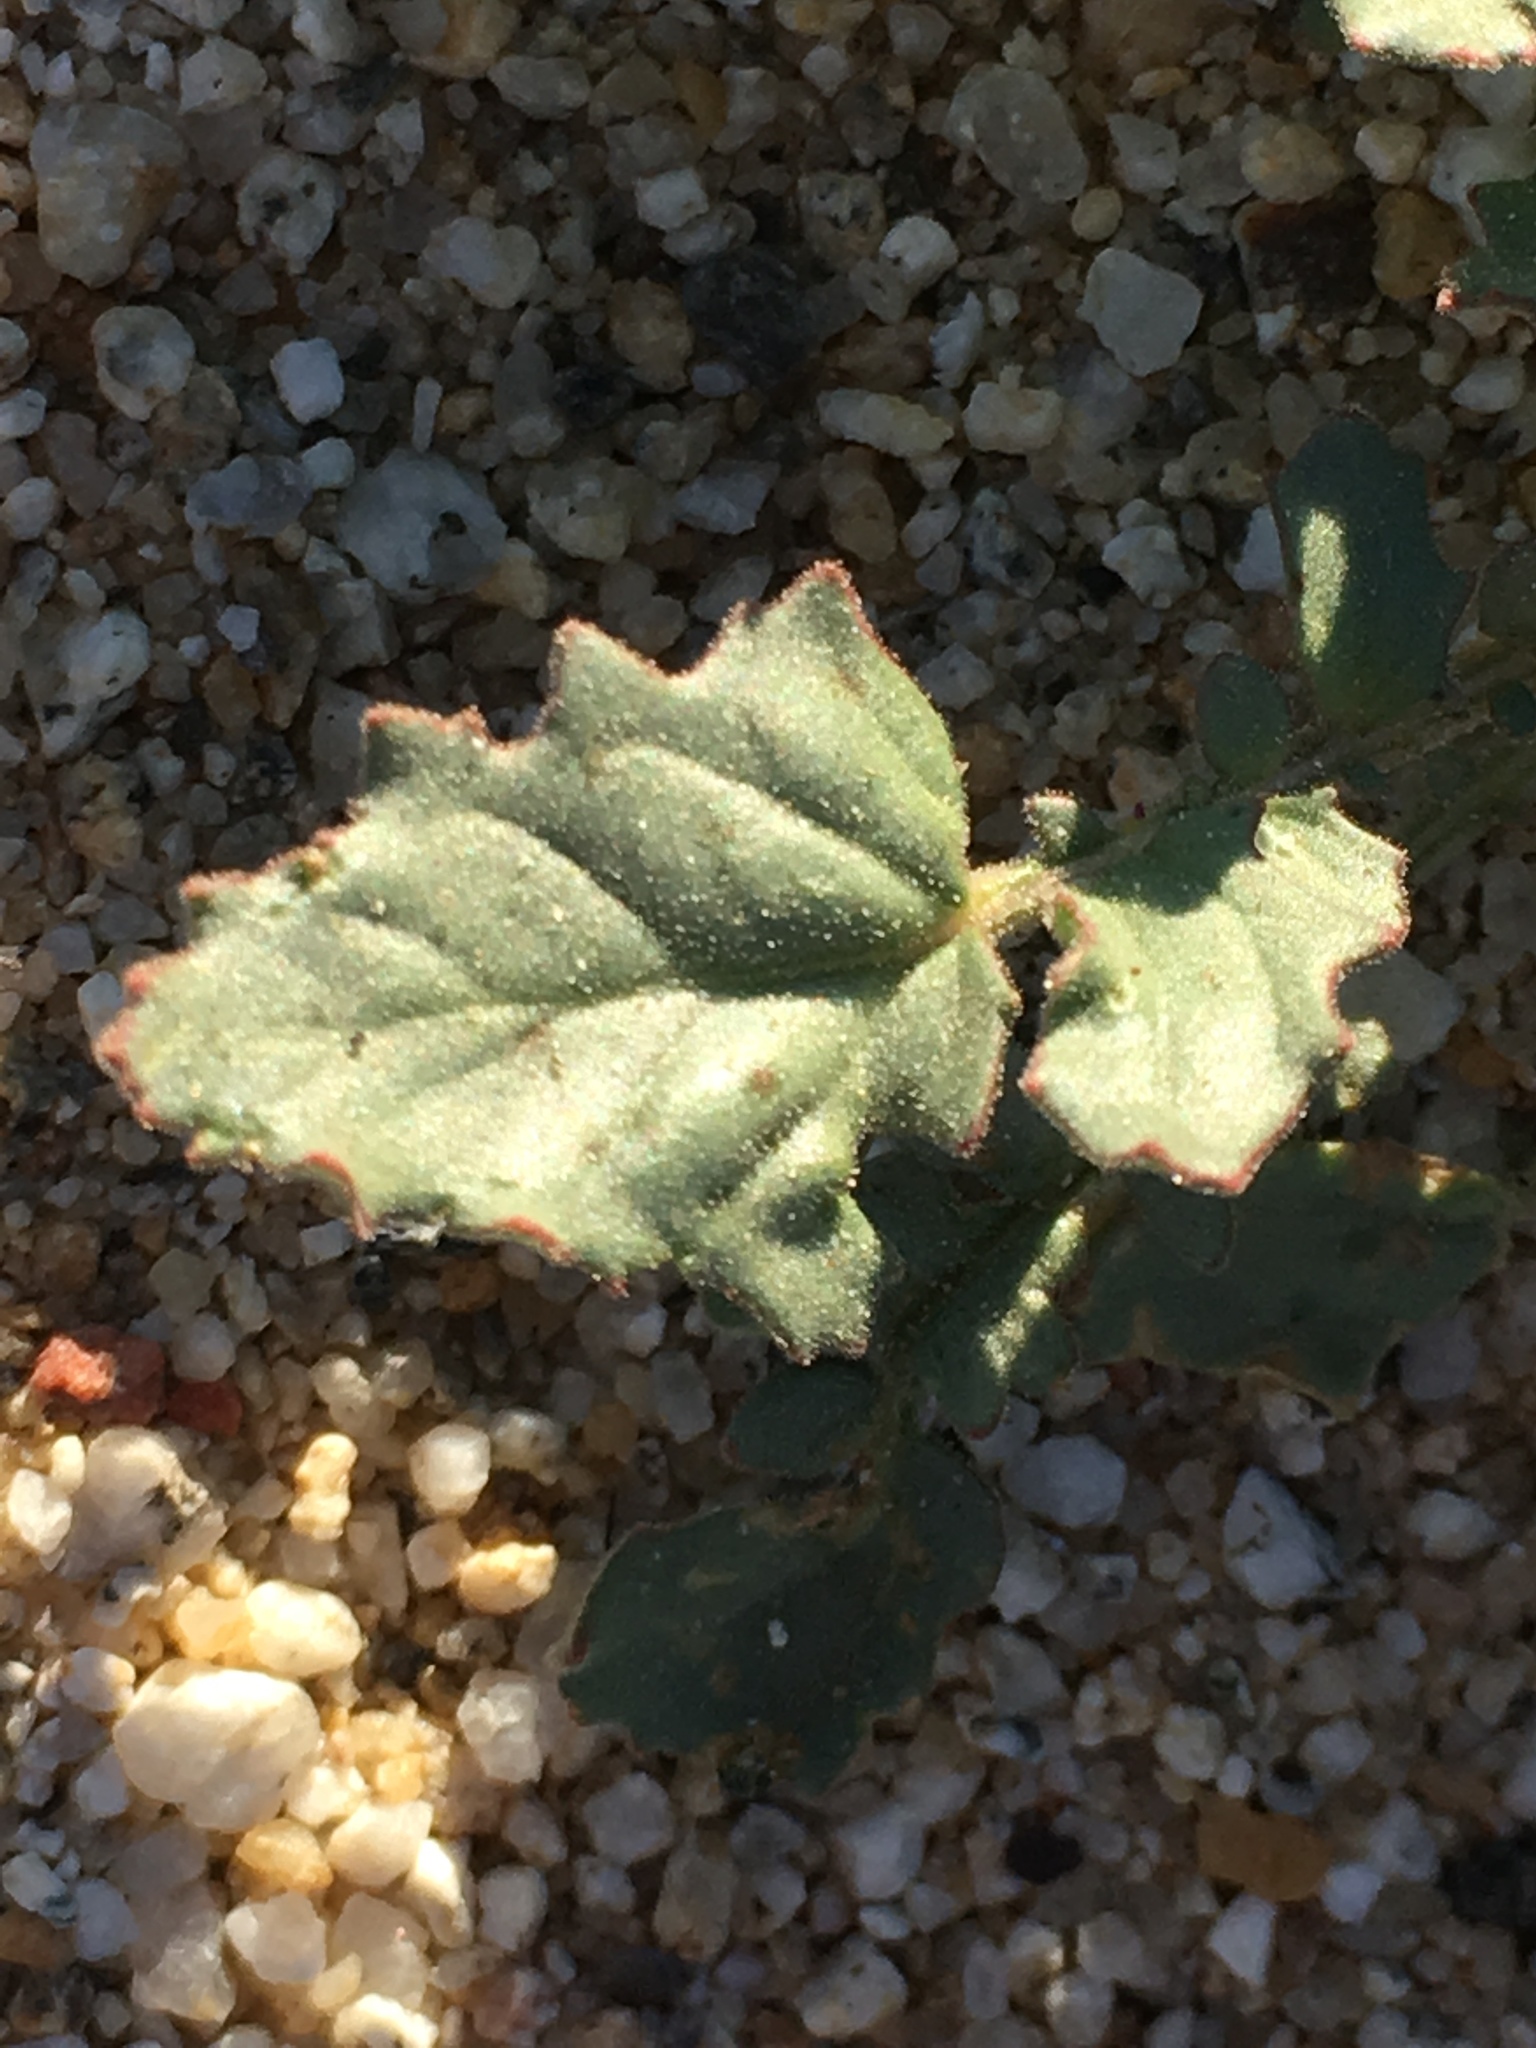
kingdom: Plantae
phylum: Tracheophyta
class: Magnoliopsida
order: Myrtales
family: Onagraceae
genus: Chylismia
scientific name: Chylismia claviformis
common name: Browneyes
